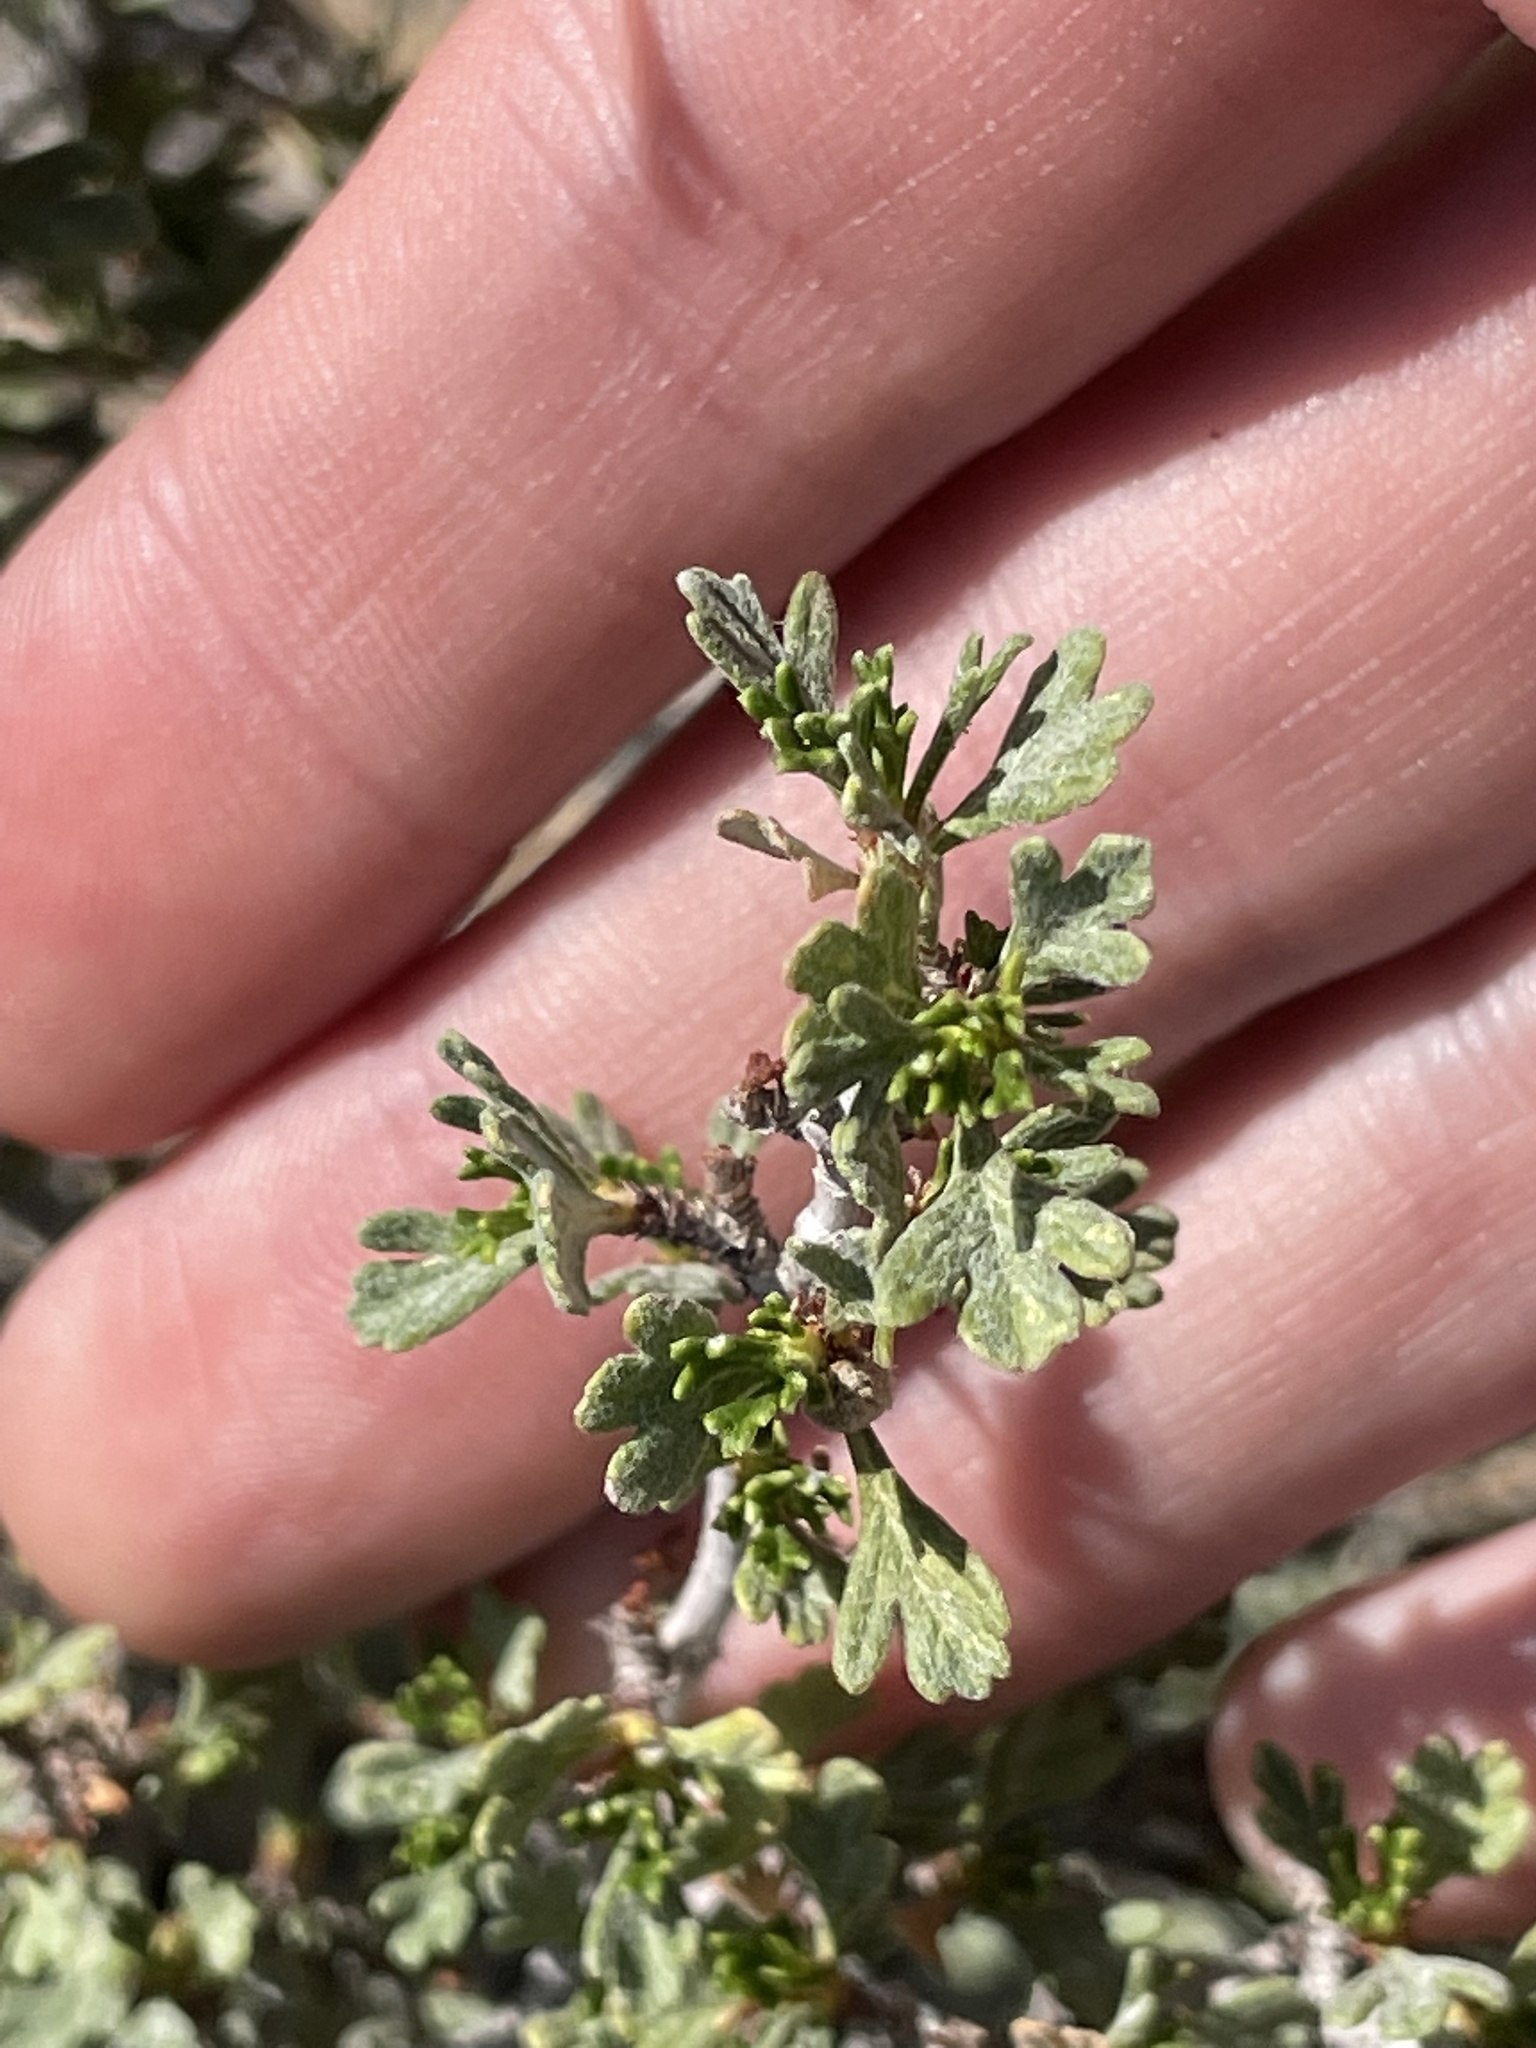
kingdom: Plantae
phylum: Tracheophyta
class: Magnoliopsida
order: Rosales
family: Rosaceae
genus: Purshia
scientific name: Purshia tridentata
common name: Antelope bitterbrush
